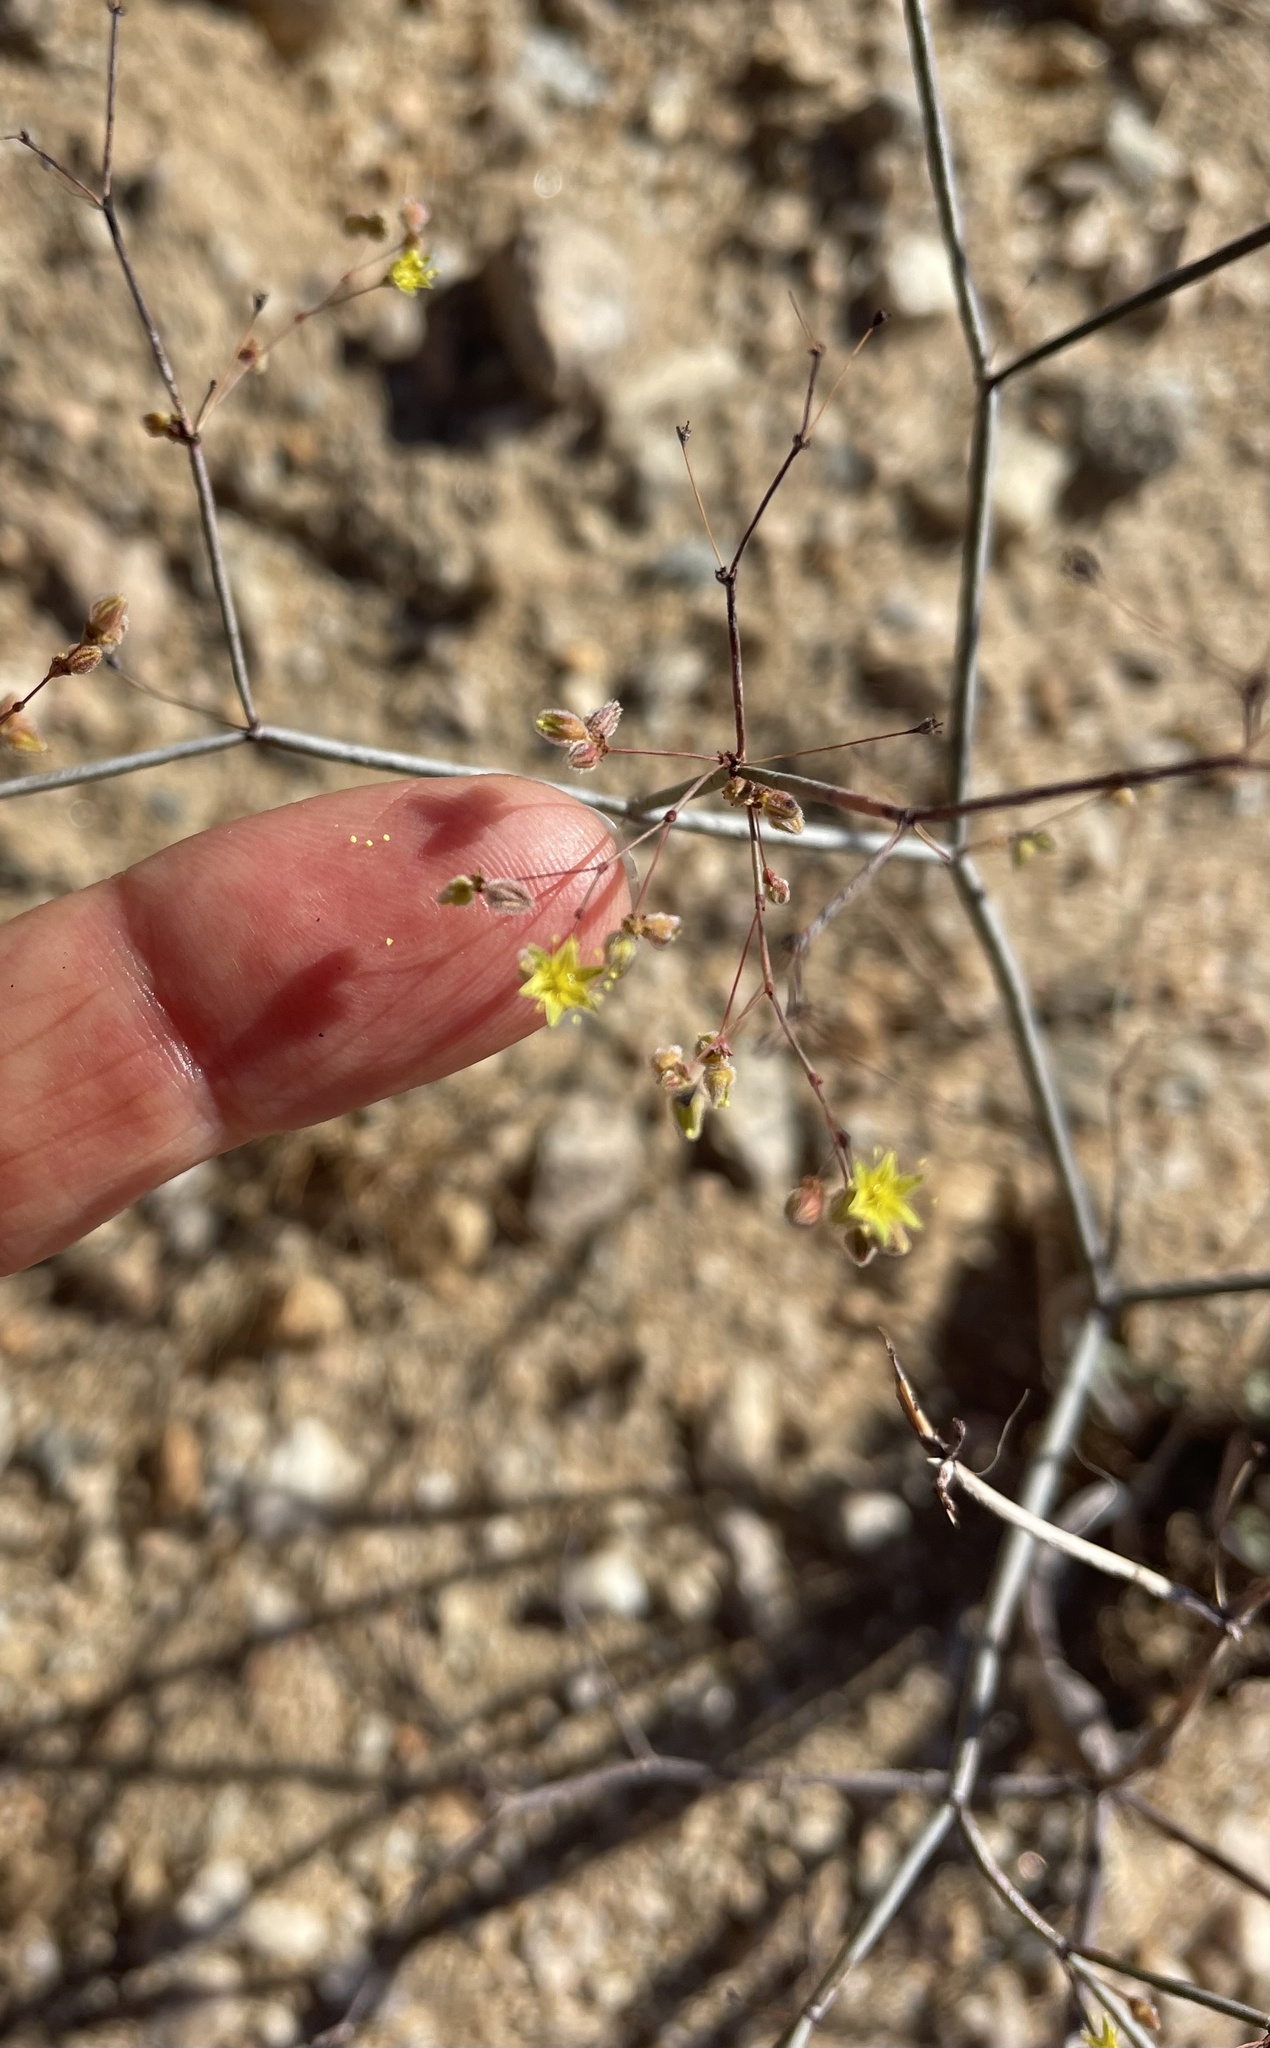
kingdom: Plantae
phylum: Tracheophyta
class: Magnoliopsida
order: Caryophyllales
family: Polygonaceae
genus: Eriogonum
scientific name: Eriogonum inflatum
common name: Desert trumpet
